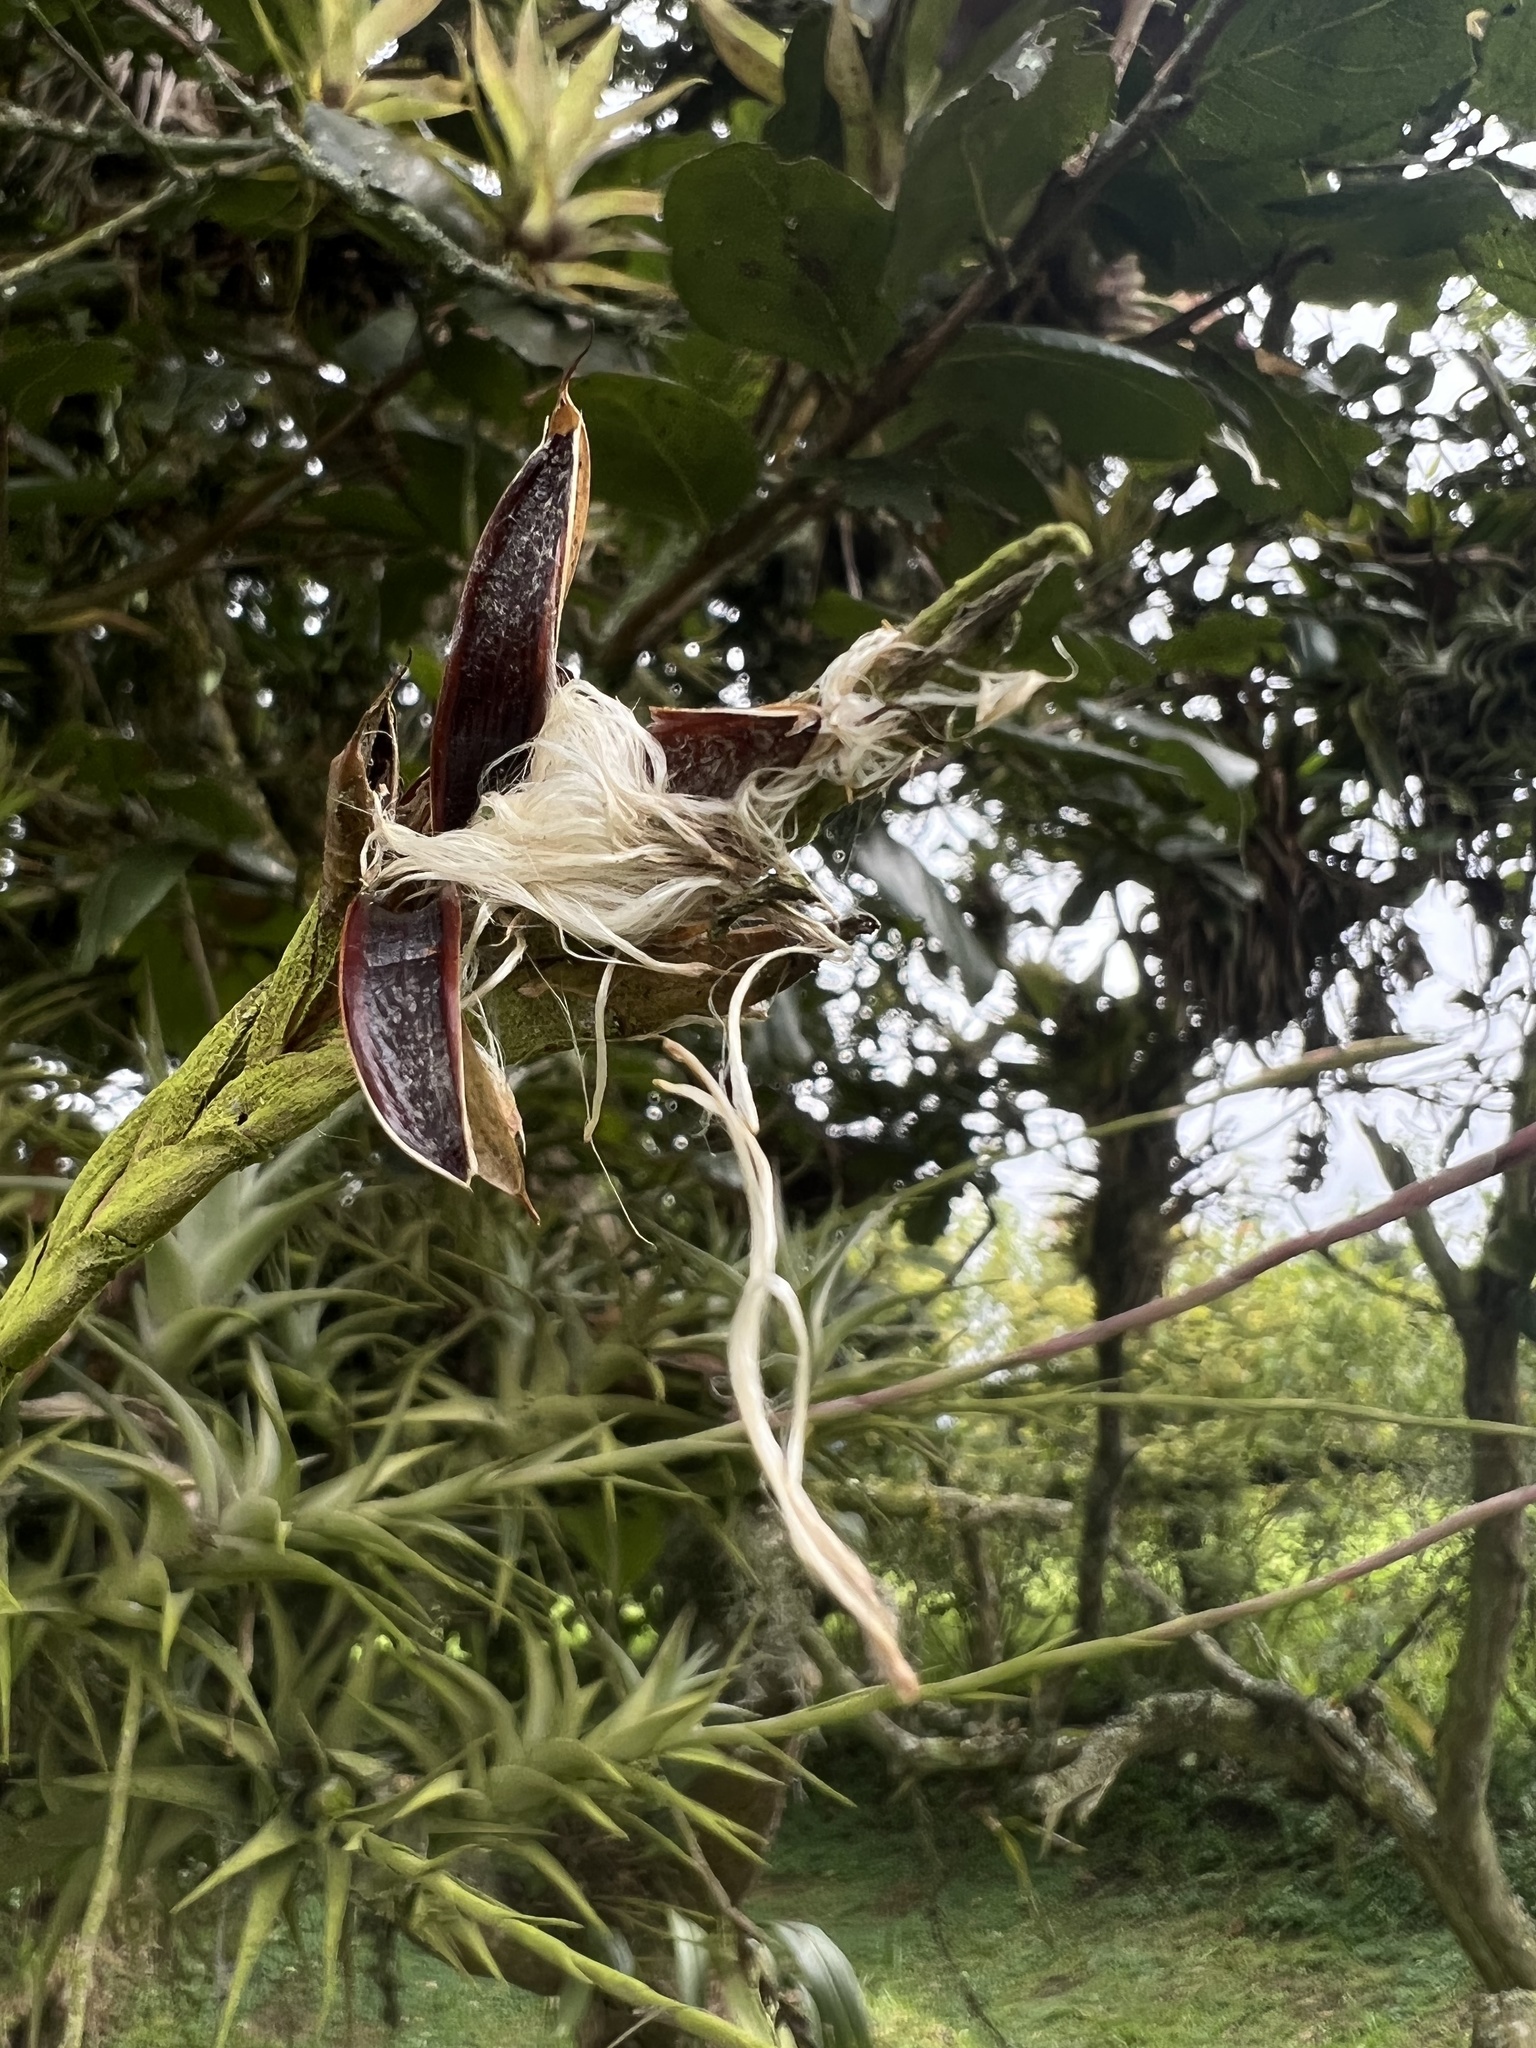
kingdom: Plantae
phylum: Tracheophyta
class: Liliopsida
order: Poales
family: Bromeliaceae
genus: Tillandsia
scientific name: Tillandsia incarnata
